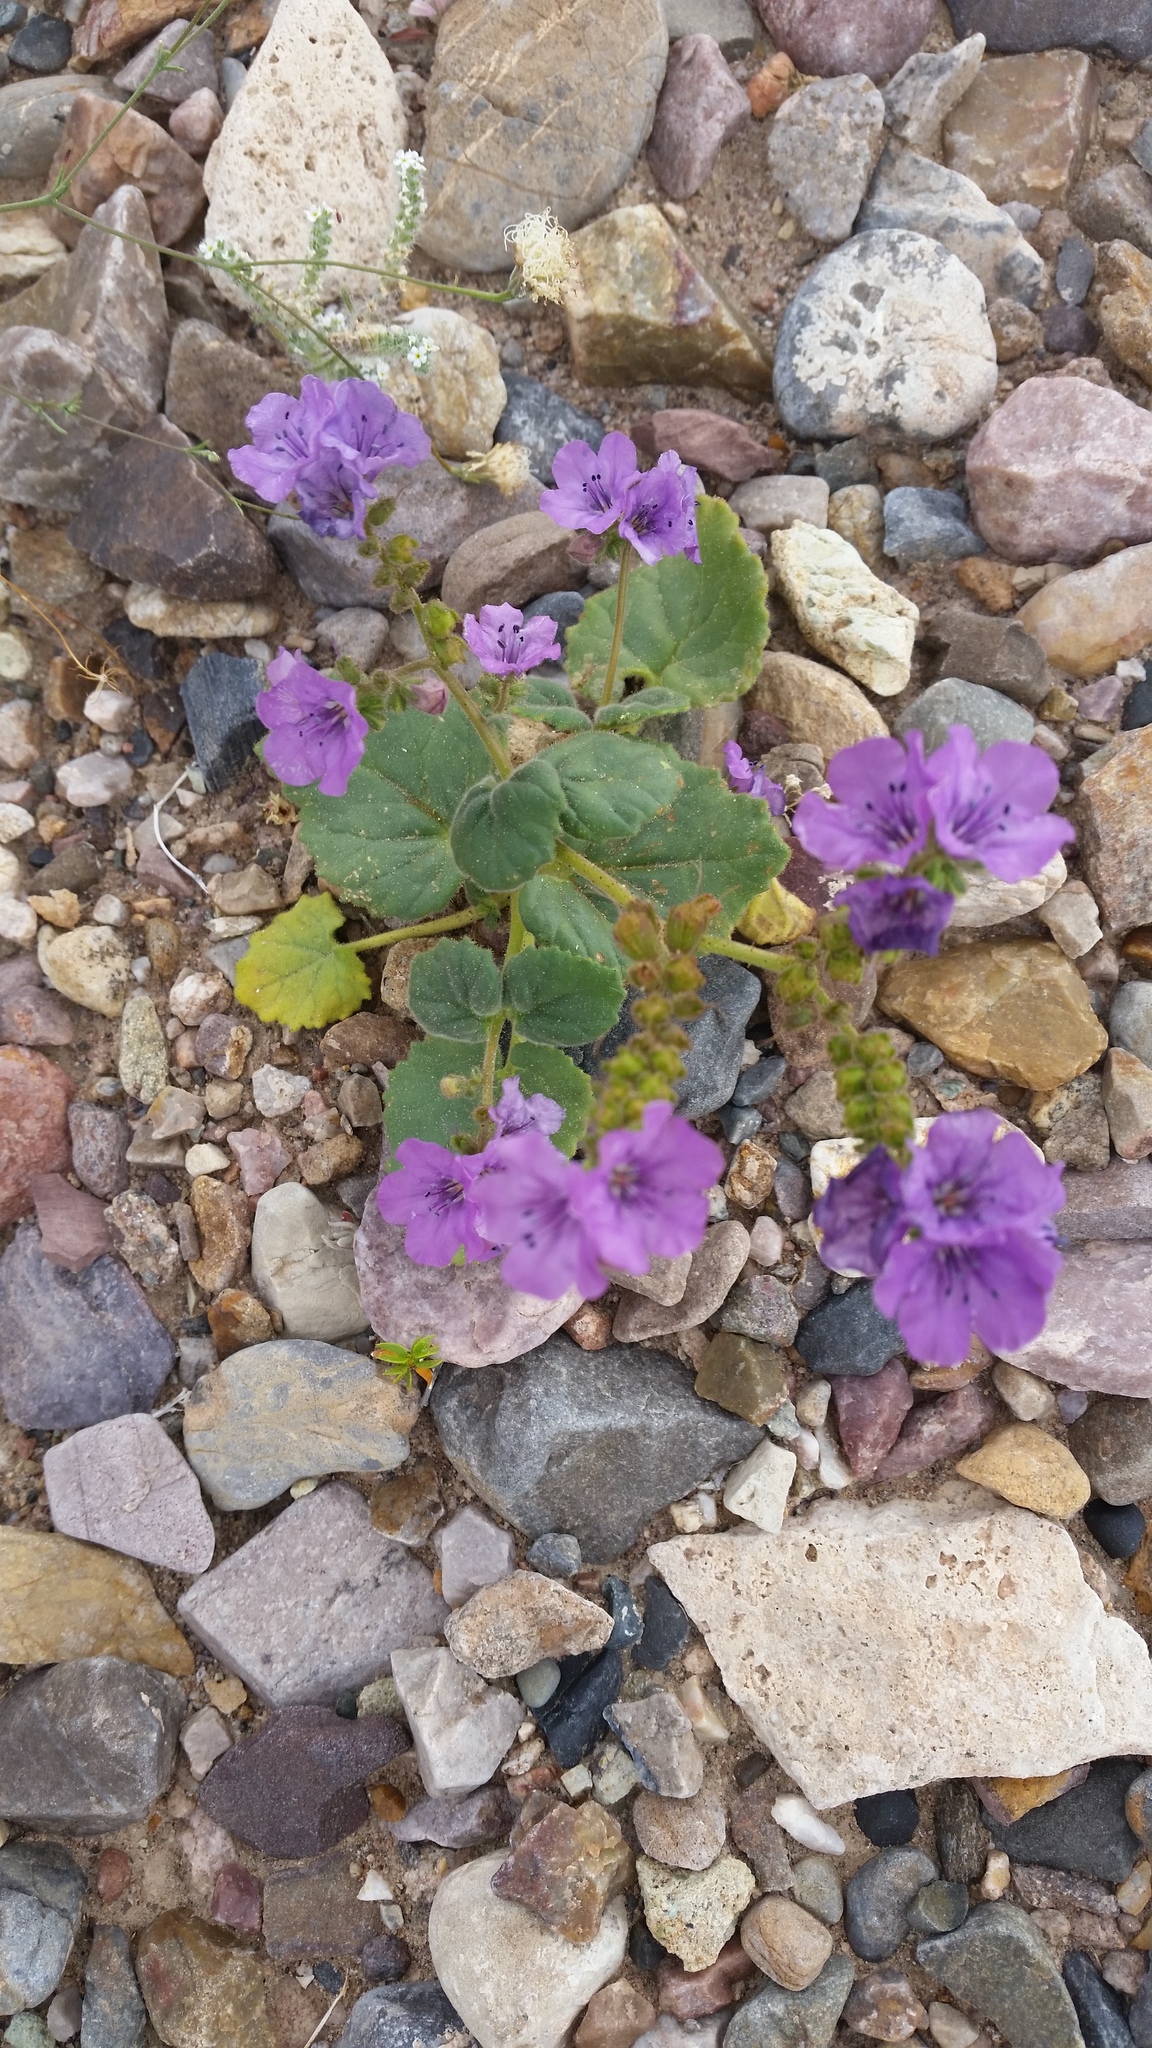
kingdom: Plantae
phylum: Tracheophyta
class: Magnoliopsida
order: Boraginales
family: Hydrophyllaceae
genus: Phacelia
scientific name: Phacelia calthifolia
